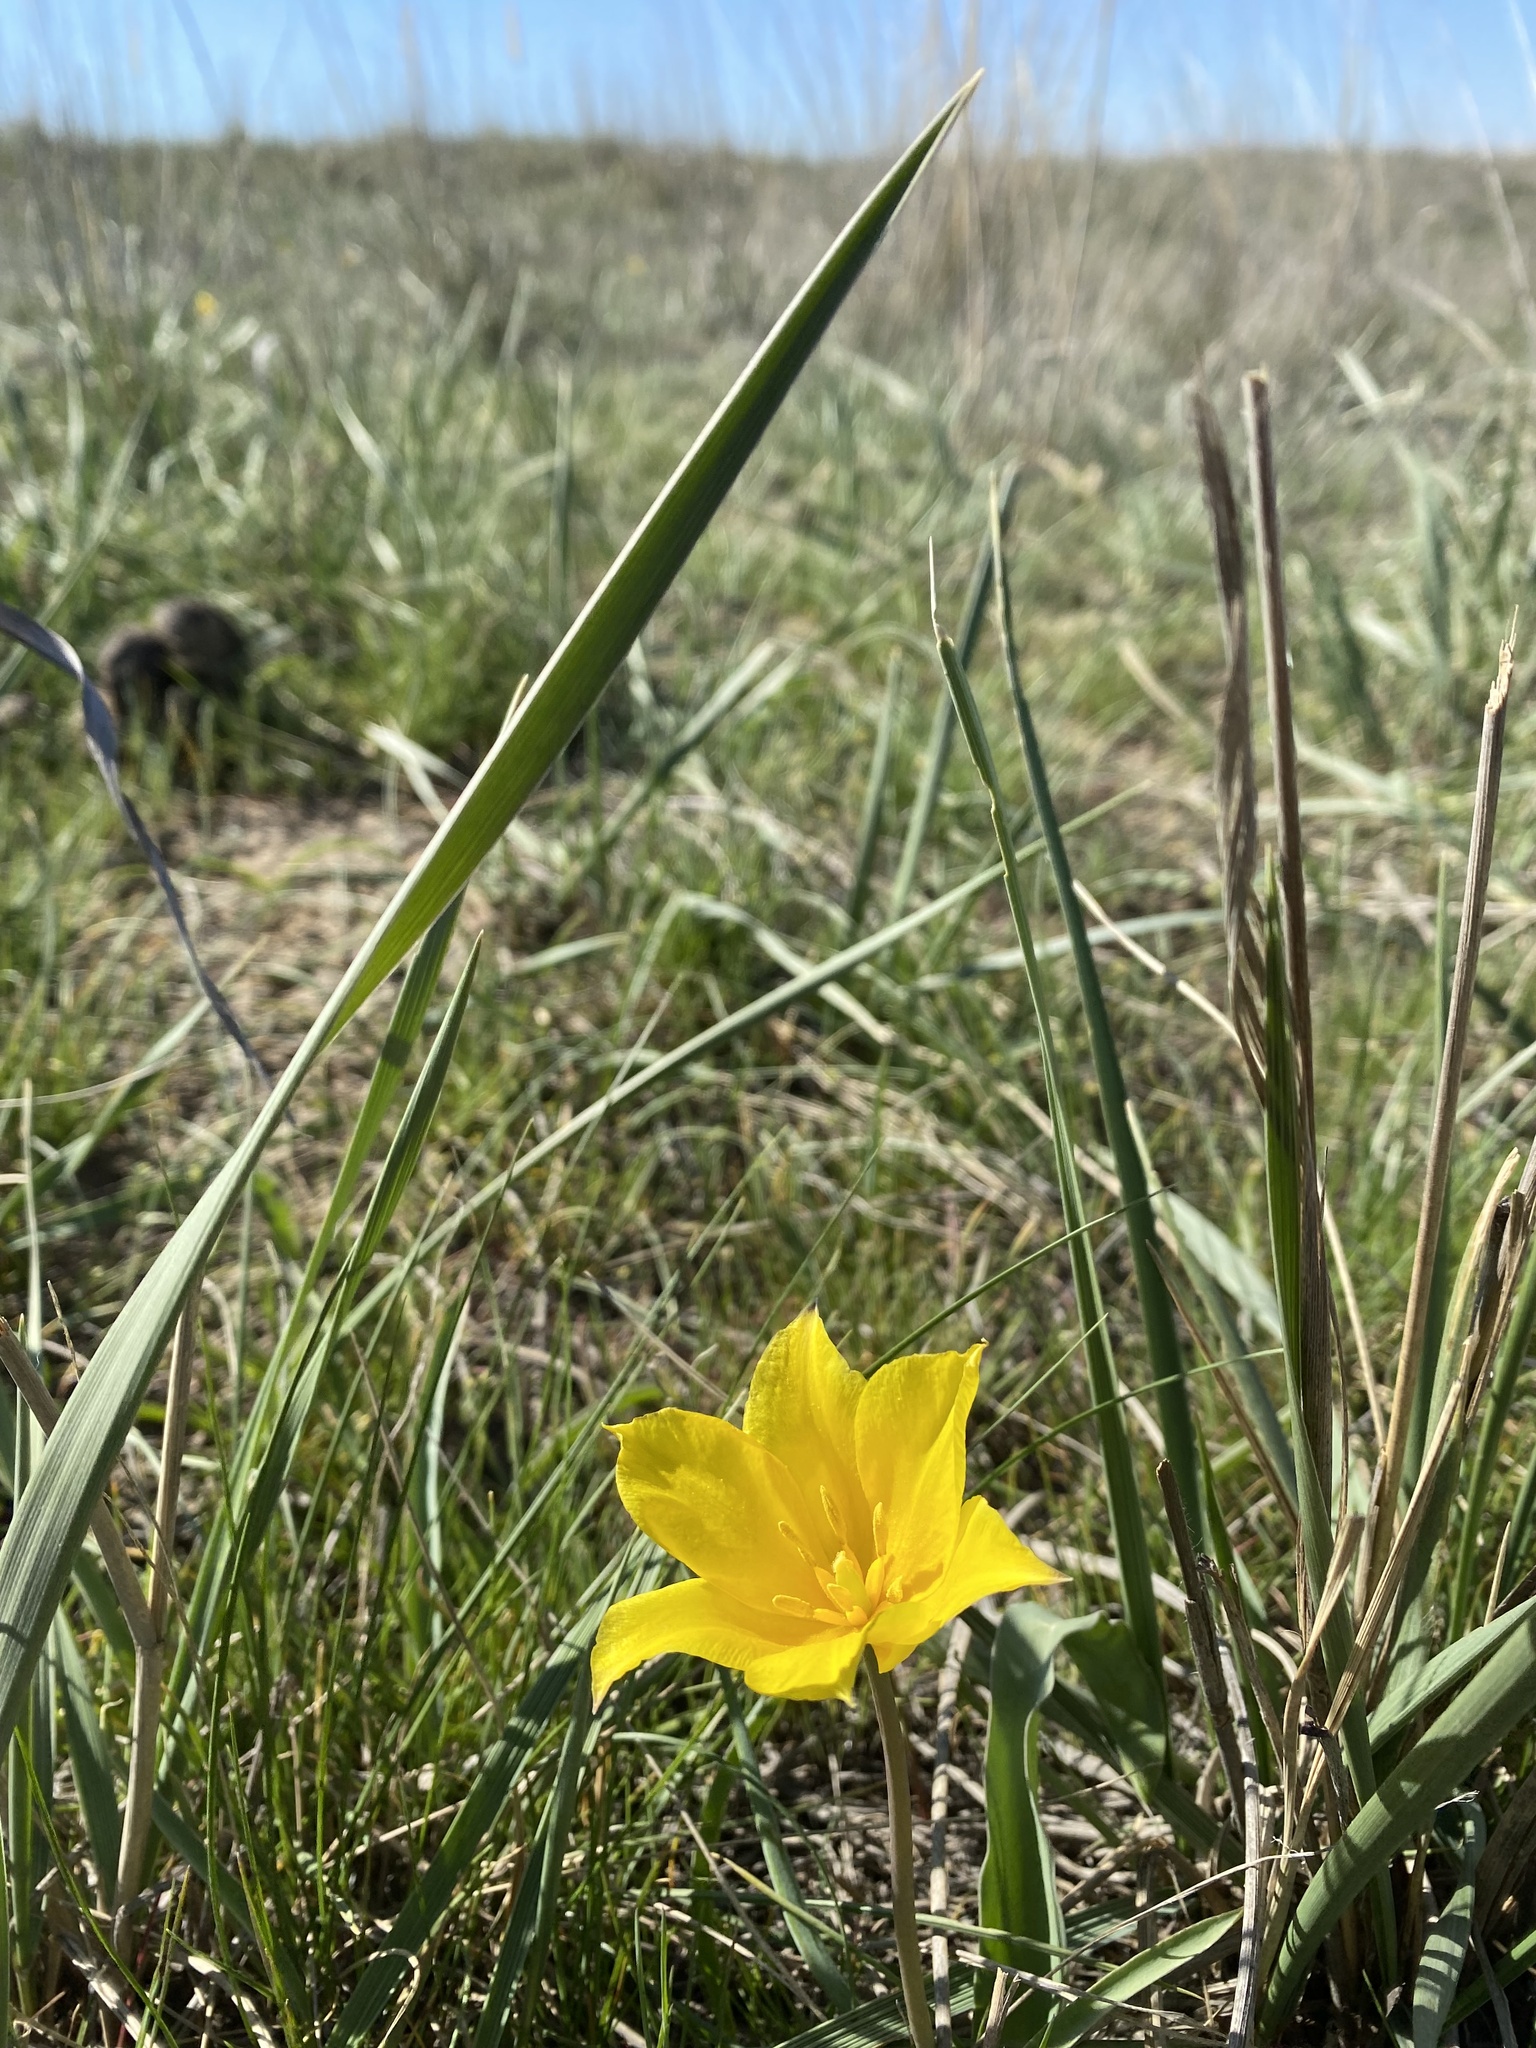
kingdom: Plantae
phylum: Tracheophyta
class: Liliopsida
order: Liliales
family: Liliaceae
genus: Tulipa
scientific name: Tulipa kolpakowskiana
